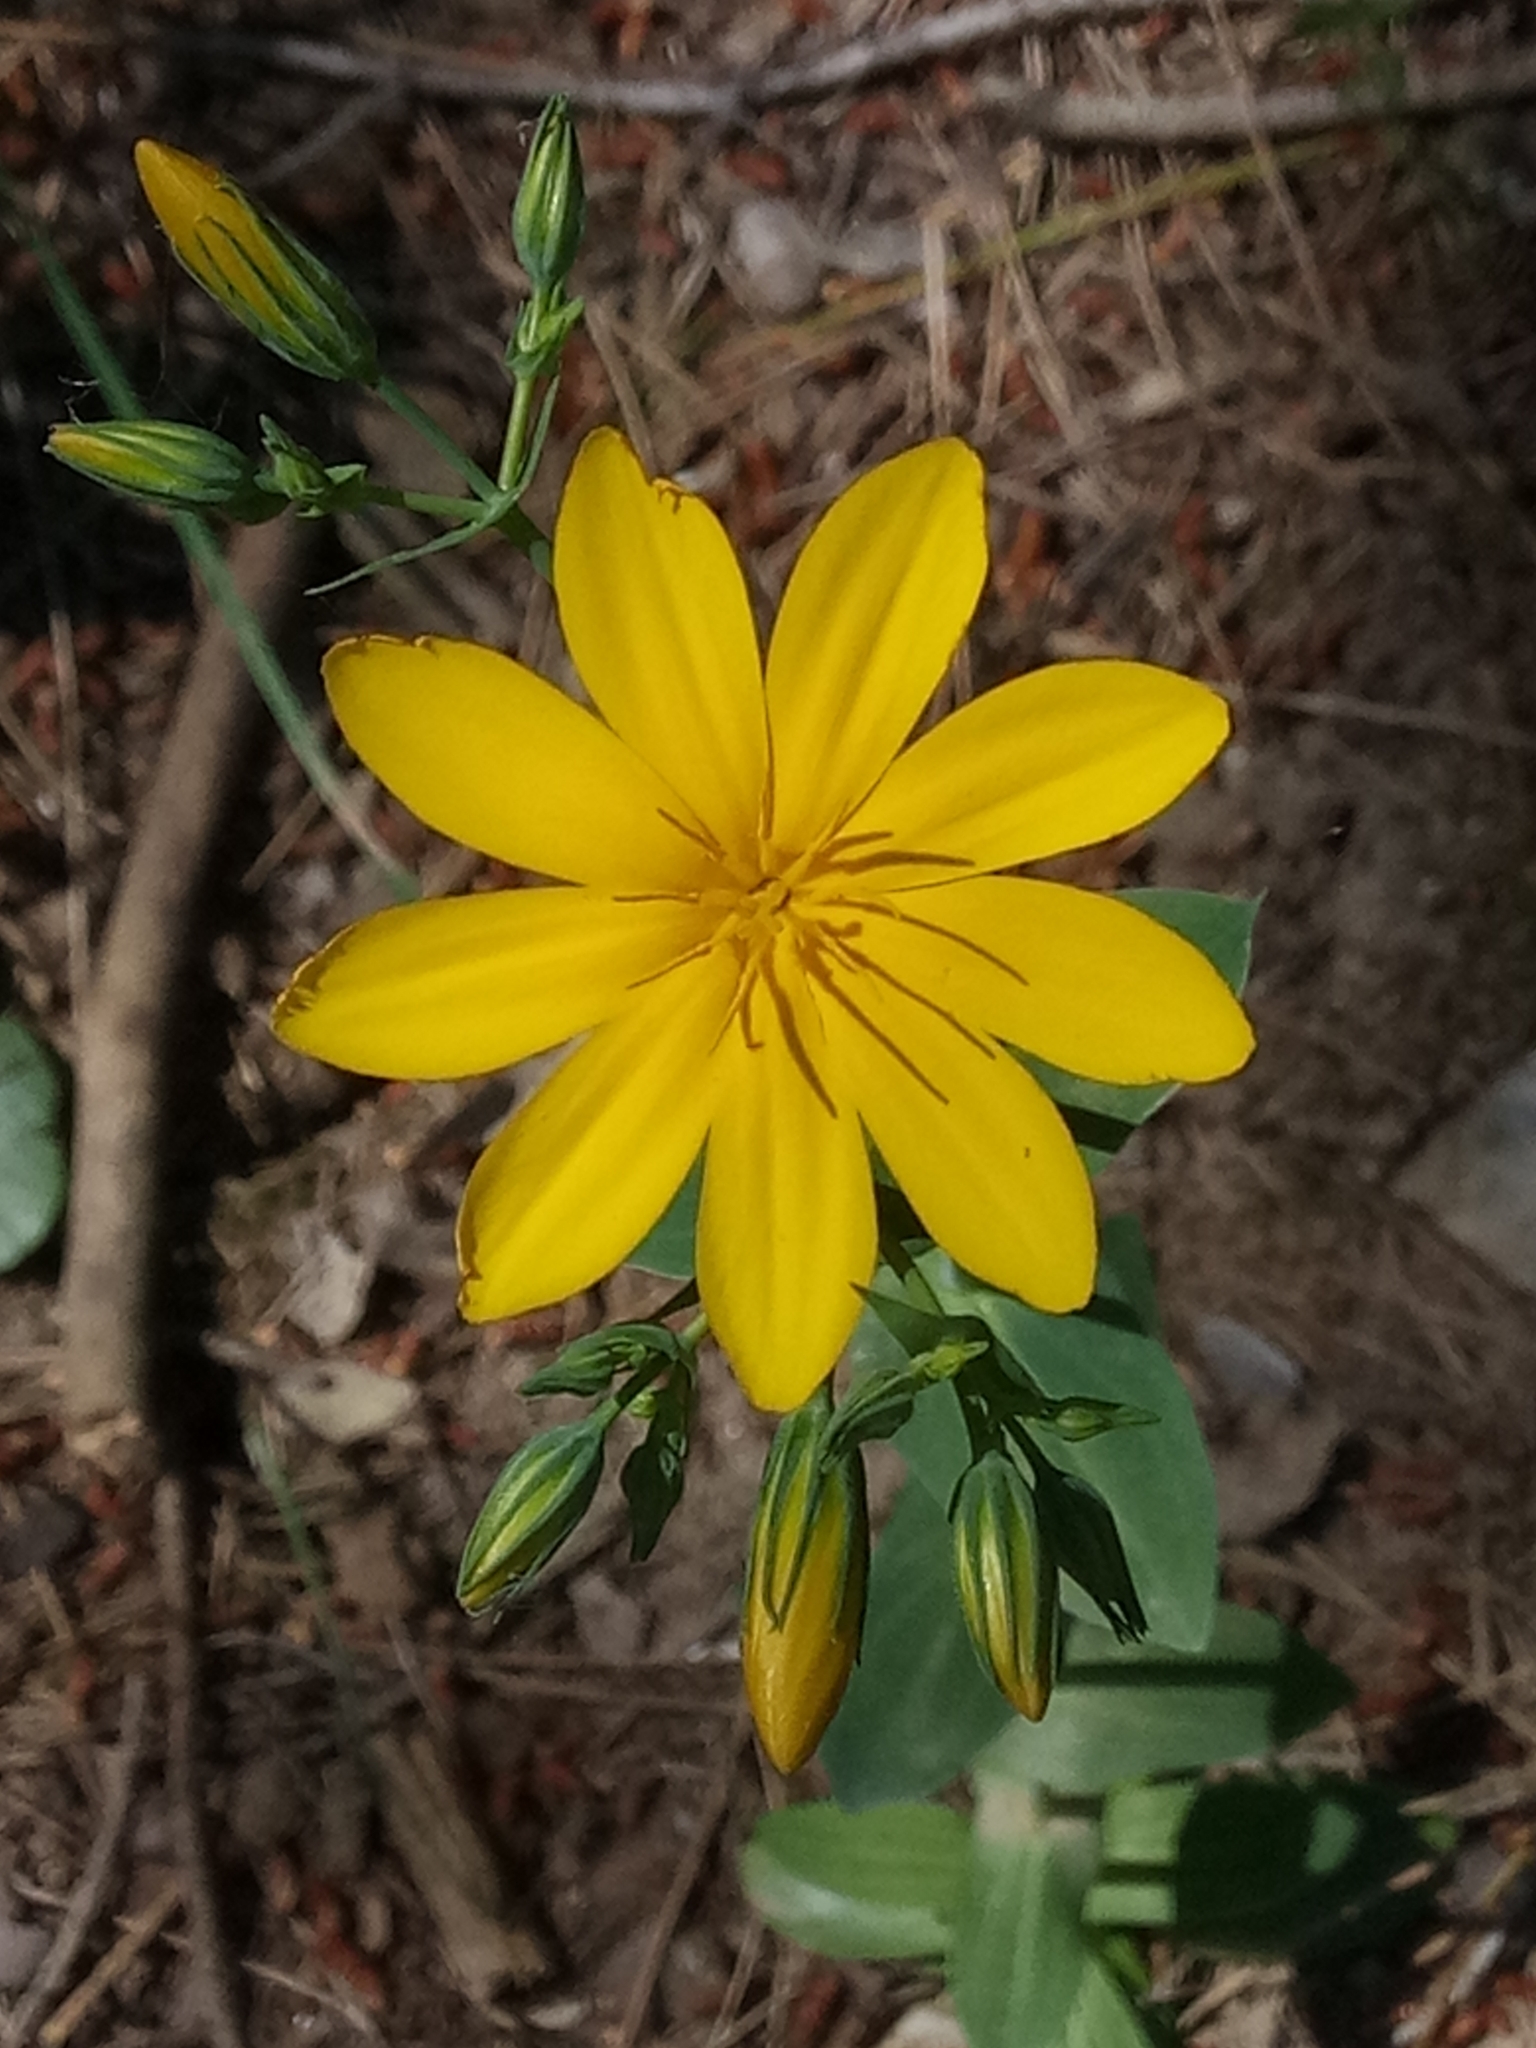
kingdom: Plantae
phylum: Tracheophyta
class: Magnoliopsida
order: Gentianales
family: Gentianaceae
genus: Blackstonia
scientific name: Blackstonia grandiflora
